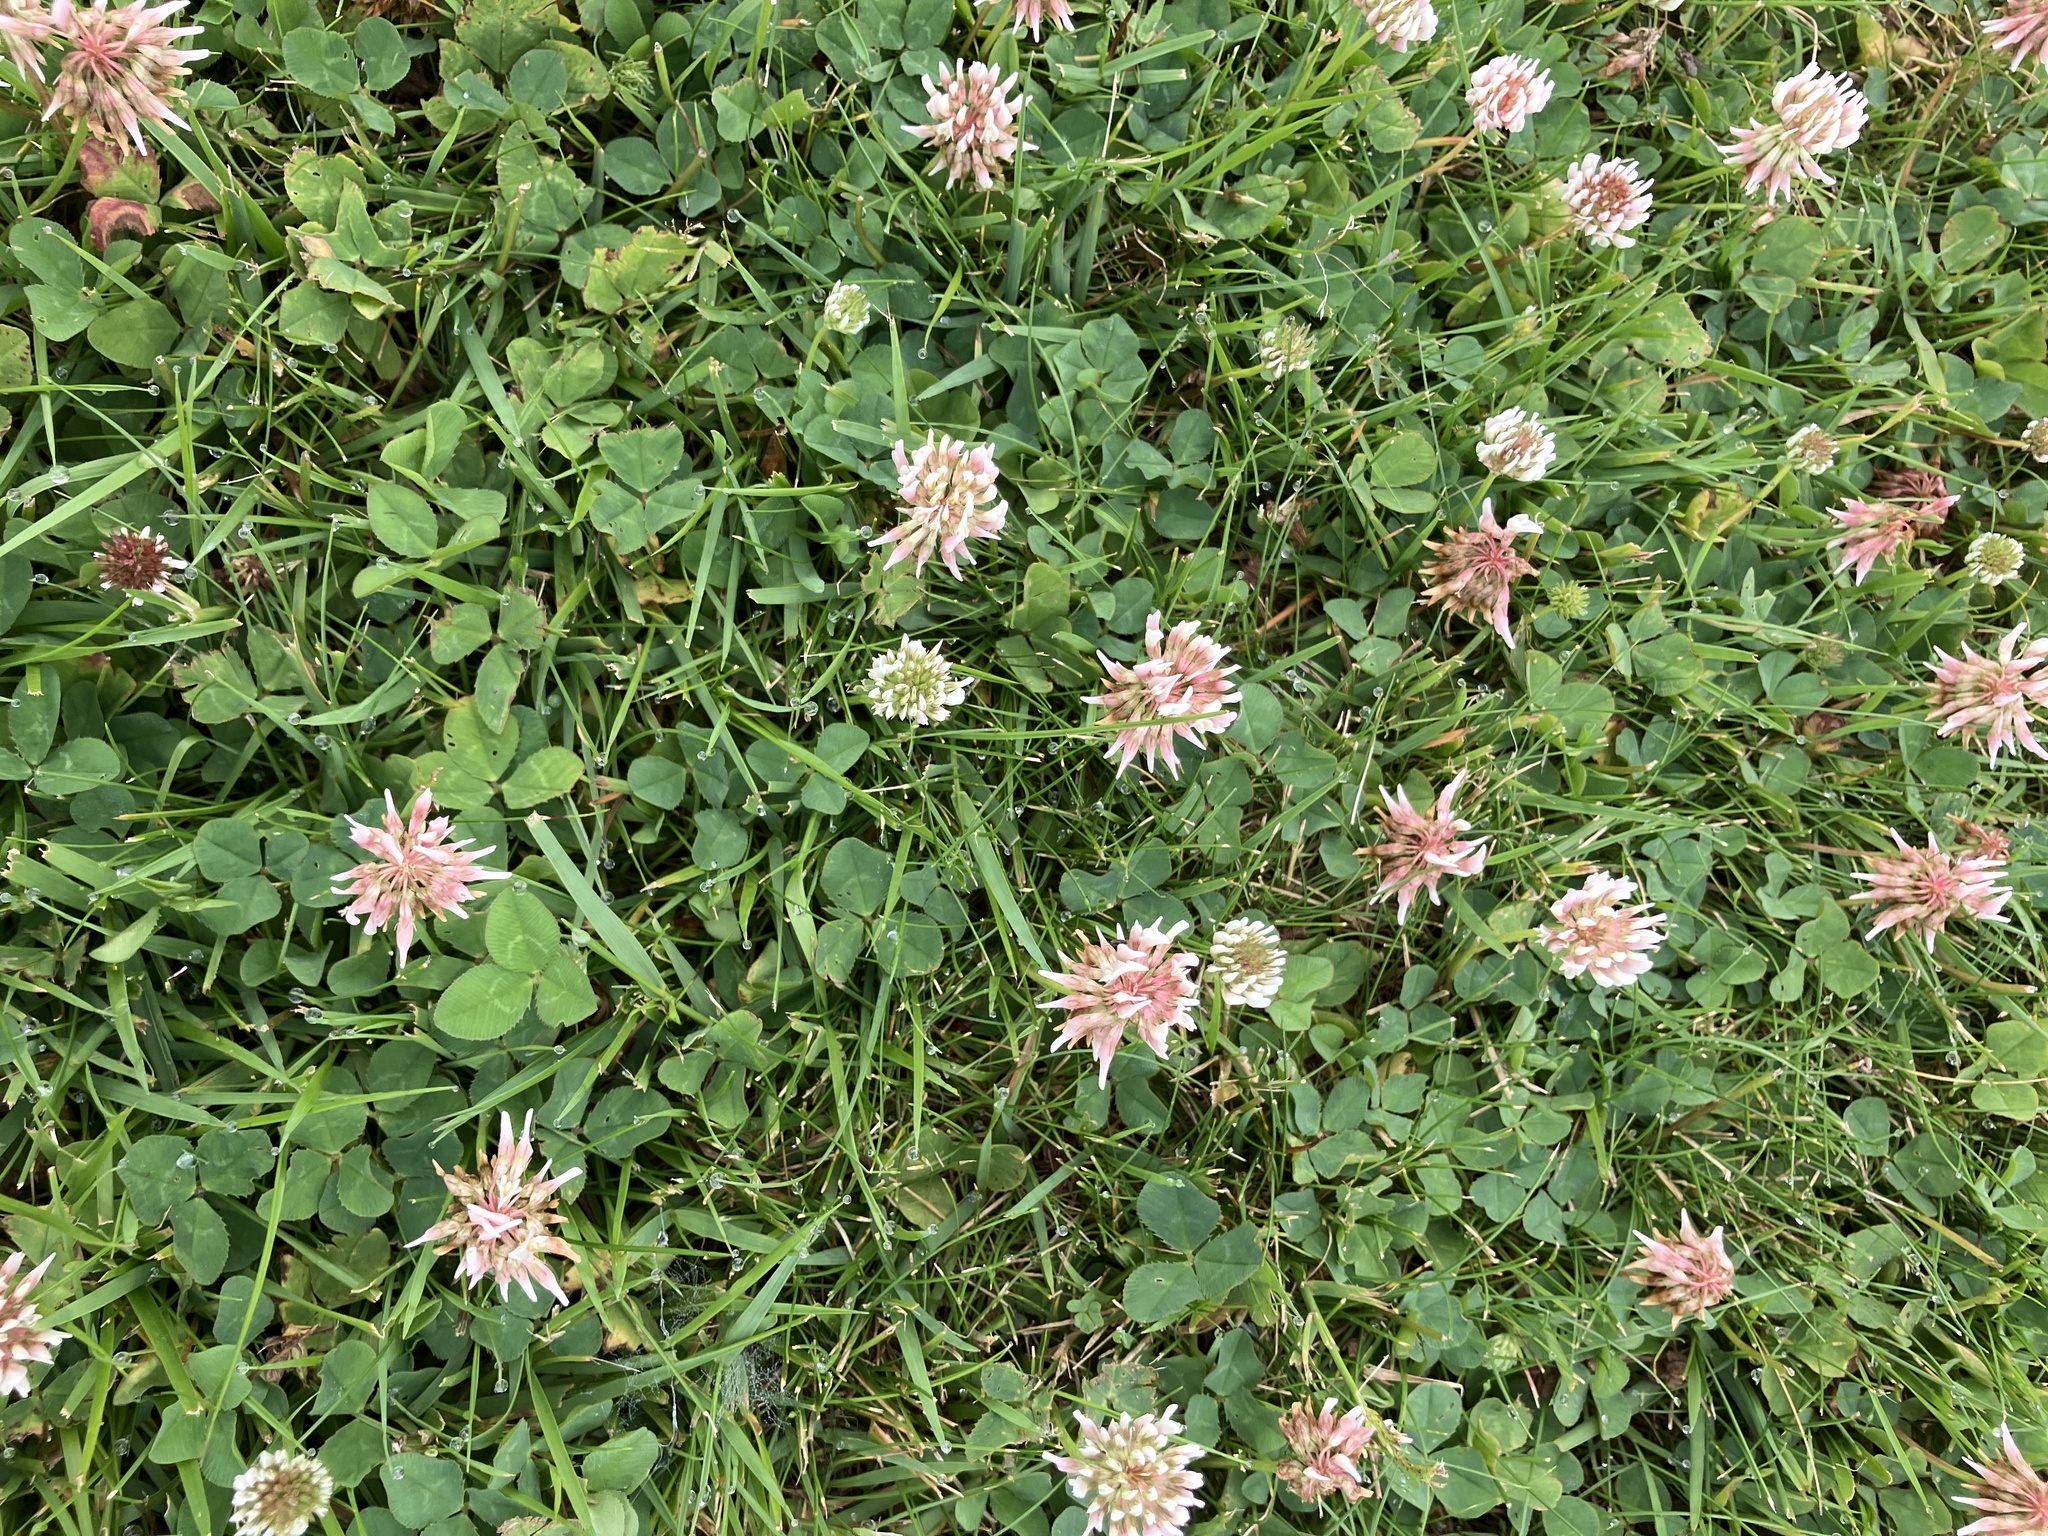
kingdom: Plantae
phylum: Tracheophyta
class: Magnoliopsida
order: Fabales
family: Fabaceae
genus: Trifolium
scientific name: Trifolium repens
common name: White clover
